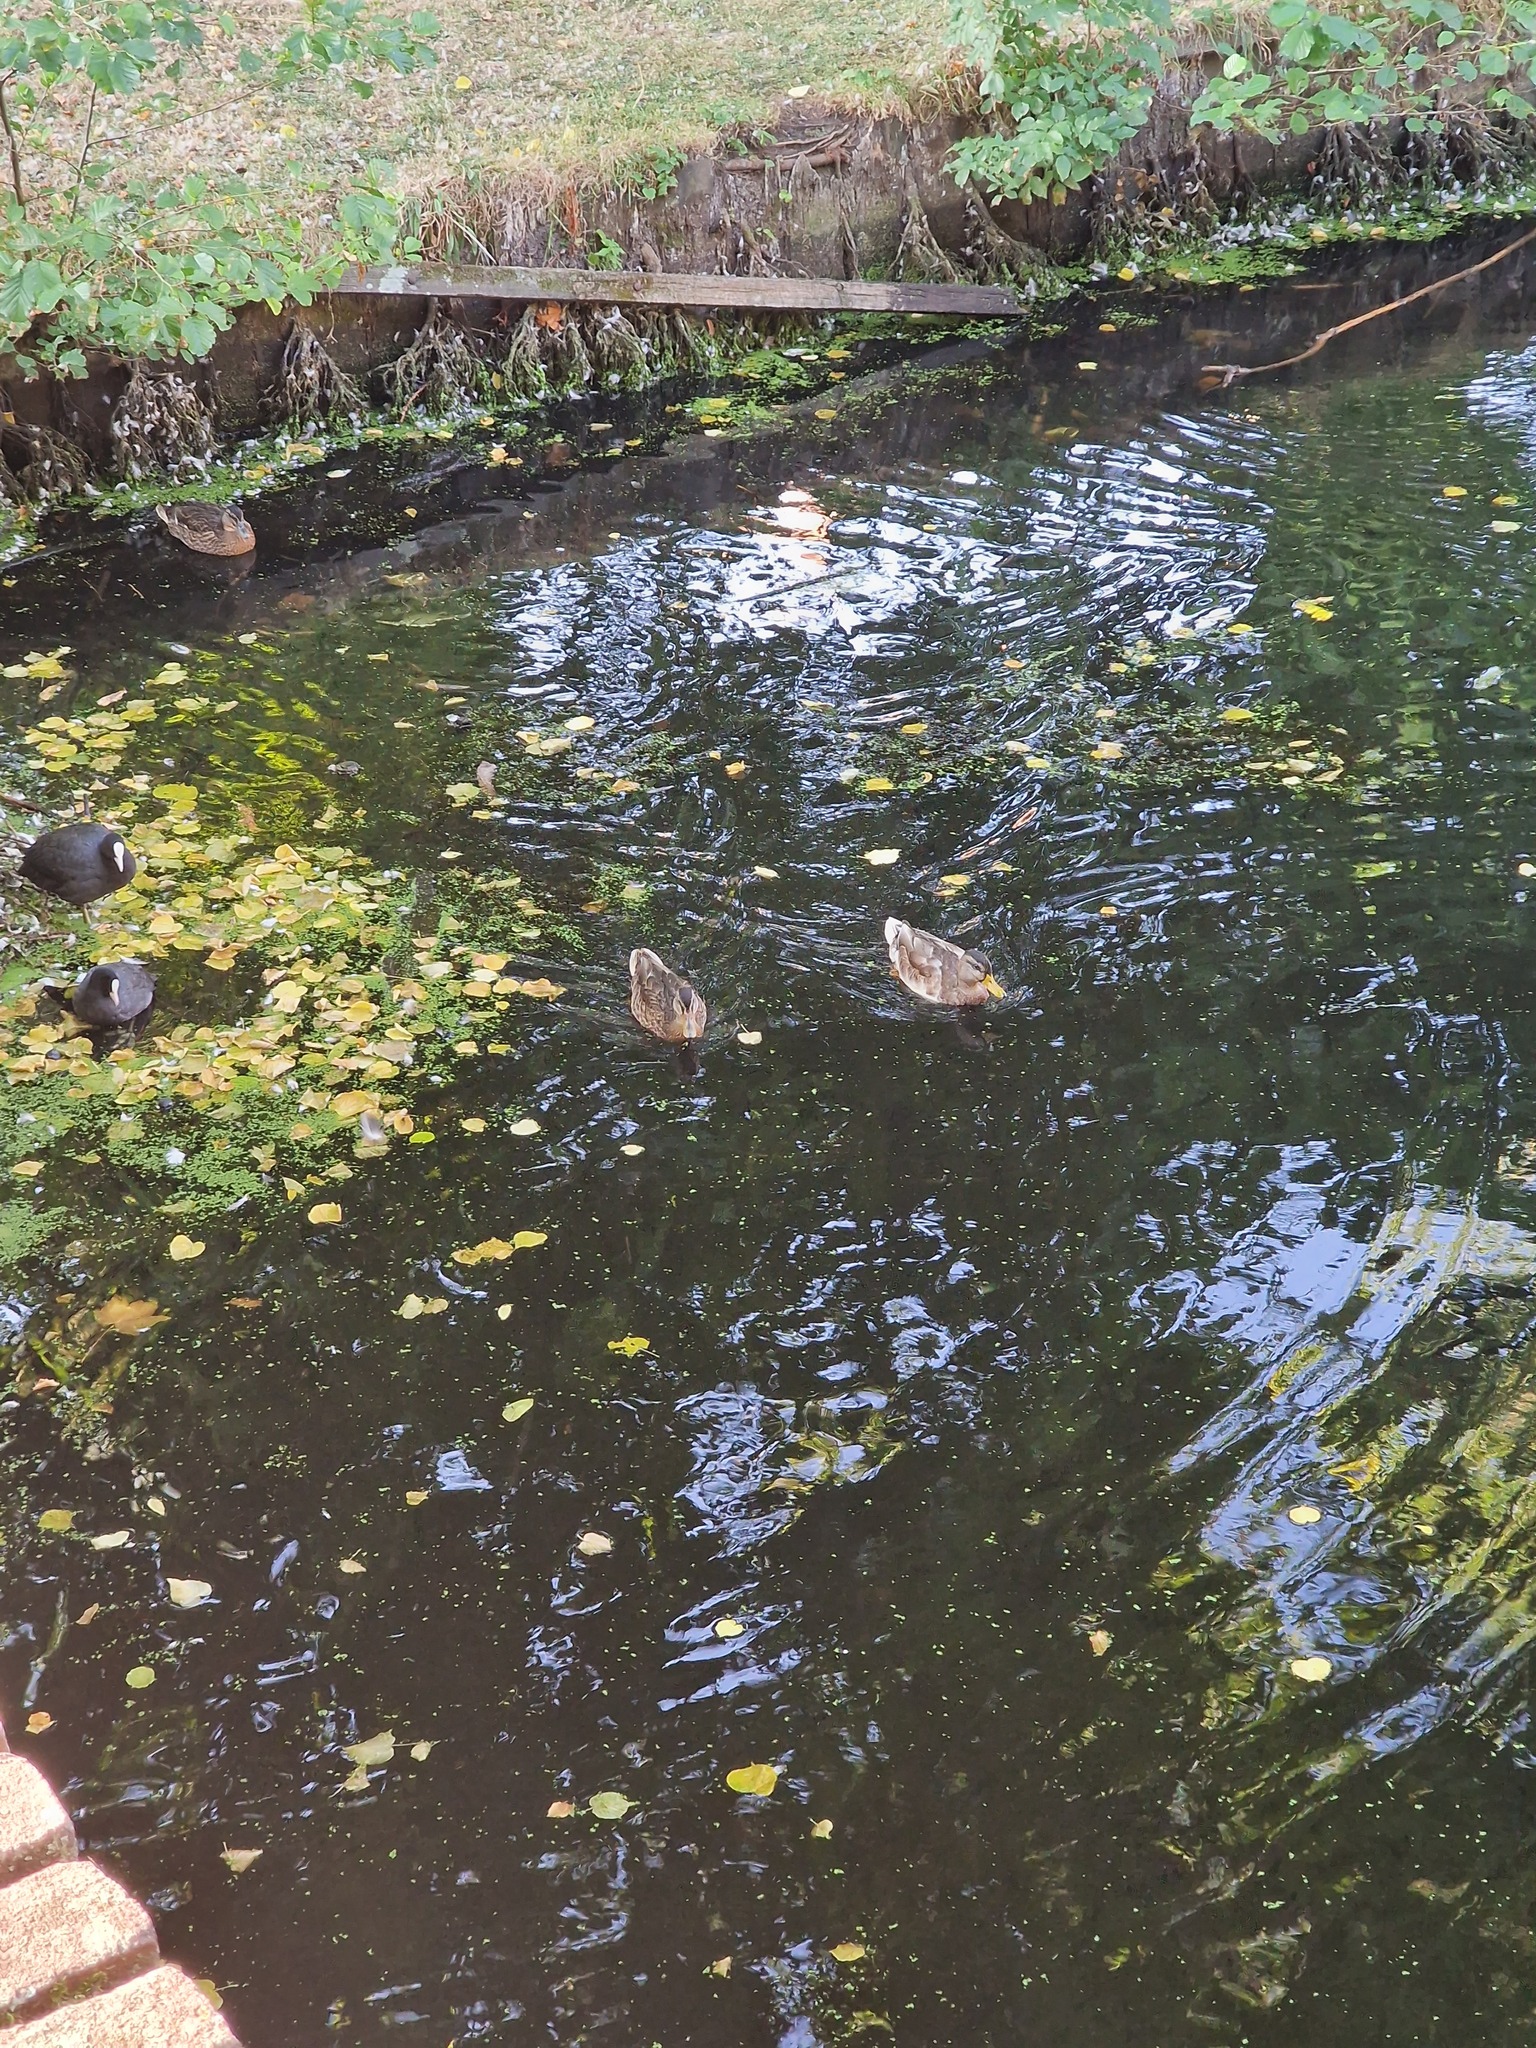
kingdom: Animalia
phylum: Chordata
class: Aves
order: Anseriformes
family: Anatidae
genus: Anas
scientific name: Anas platyrhynchos
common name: Mallard
